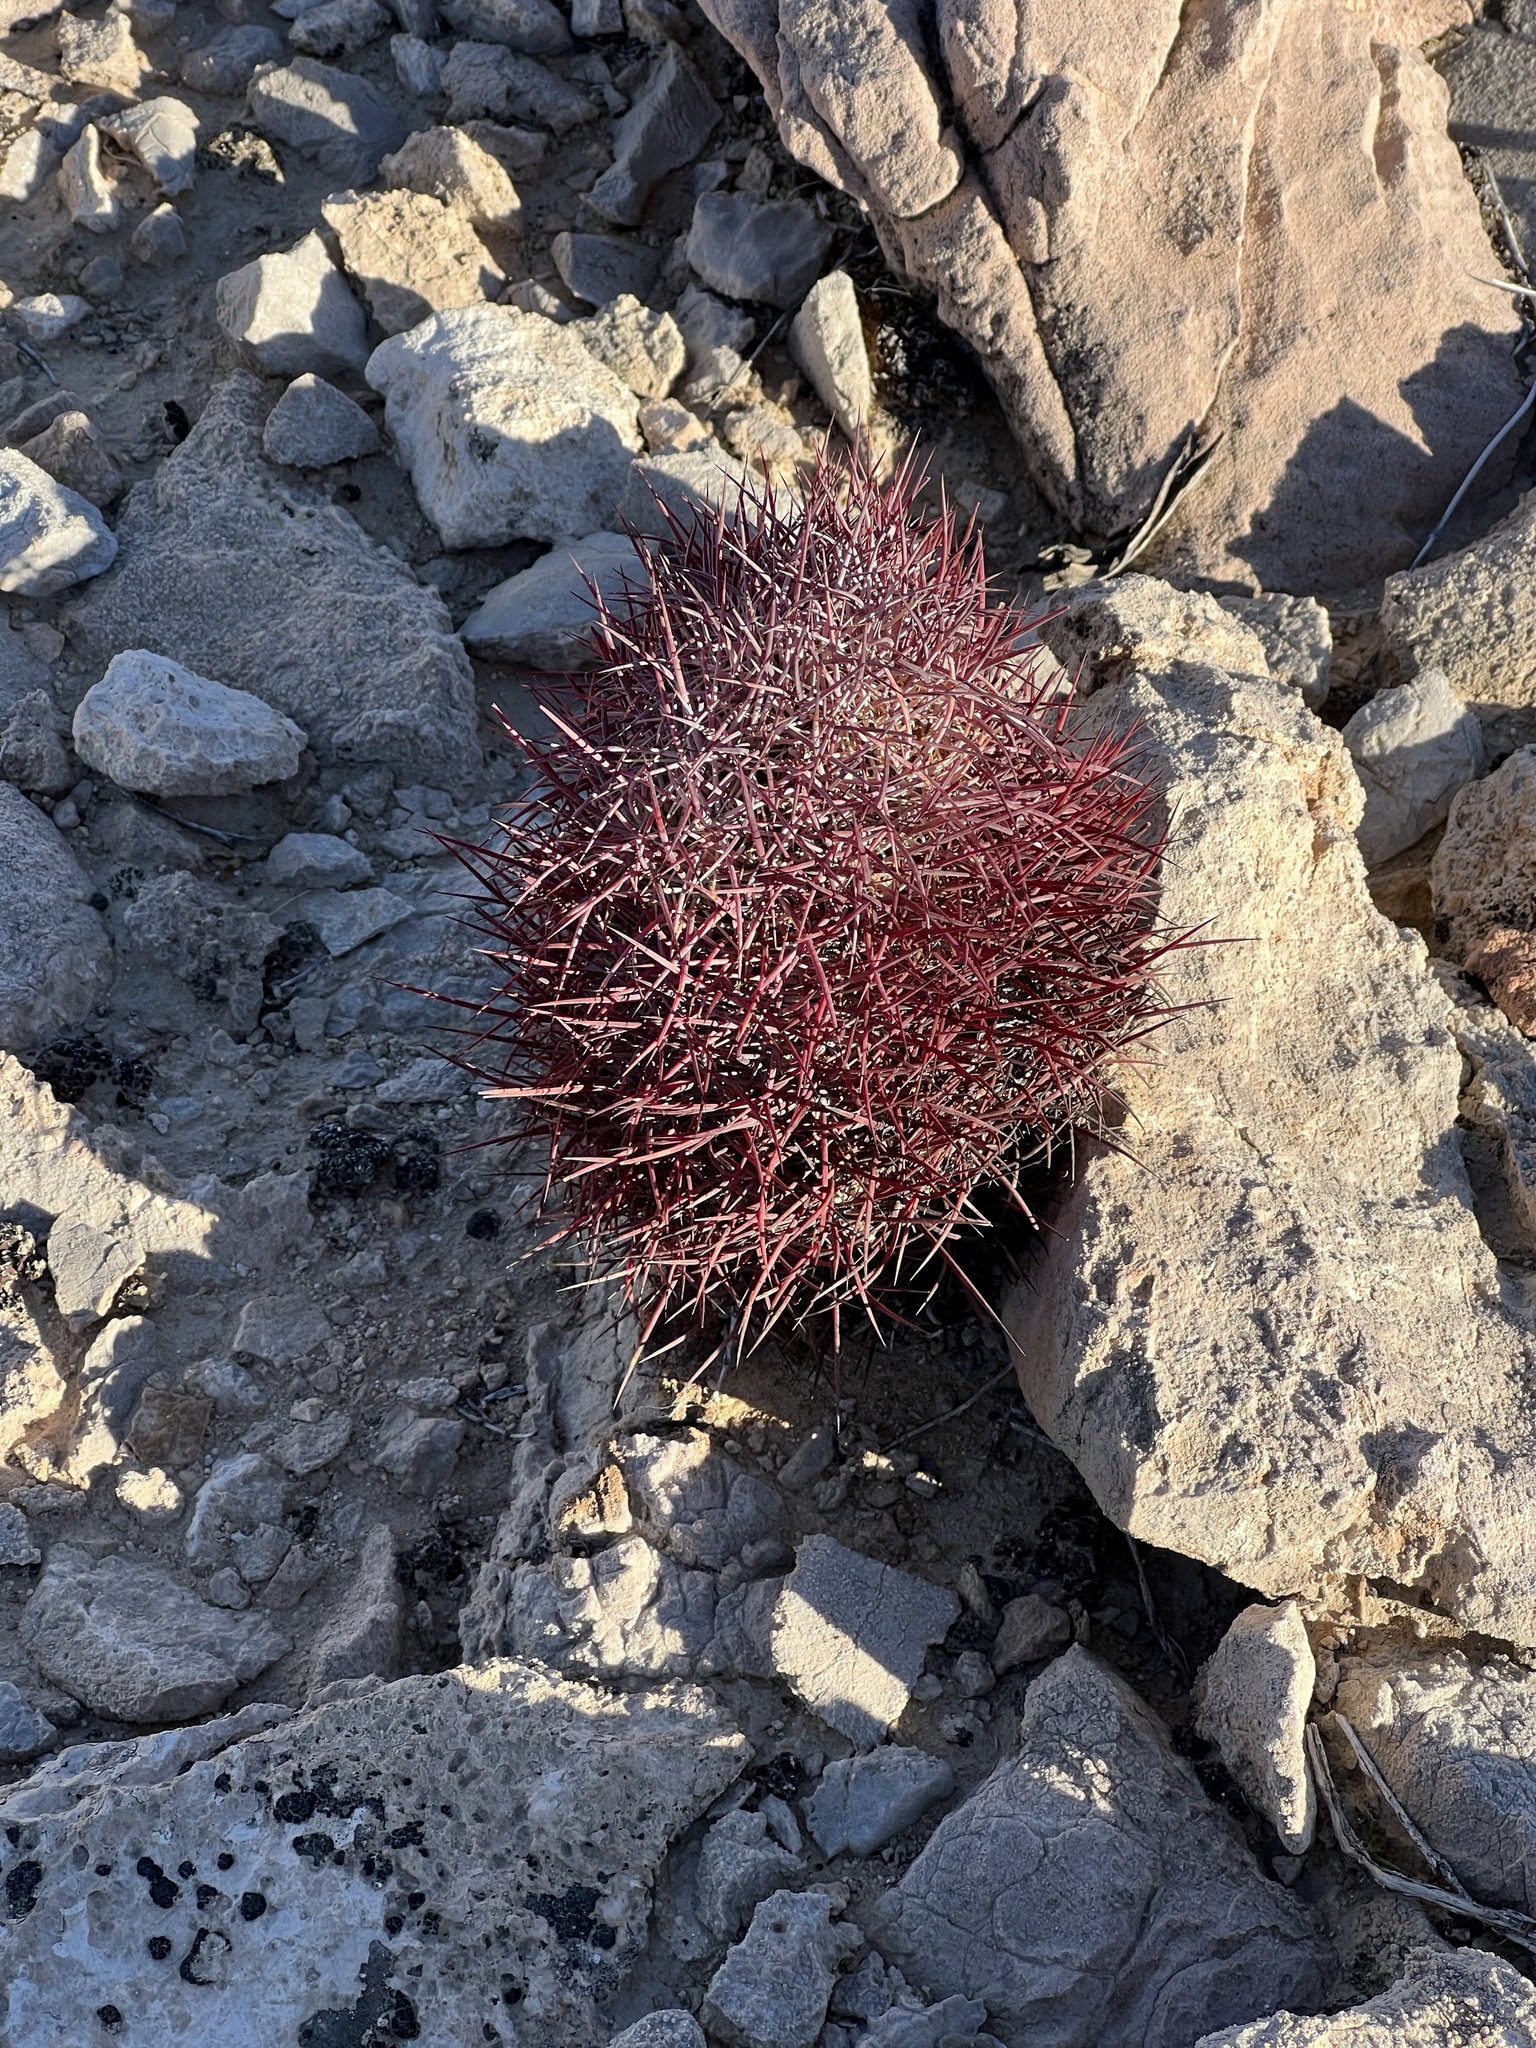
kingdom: Plantae
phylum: Tracheophyta
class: Magnoliopsida
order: Caryophyllales
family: Cactaceae
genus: Sclerocactus
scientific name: Sclerocactus johnsonii
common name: Eight-spine fishhook cactus
